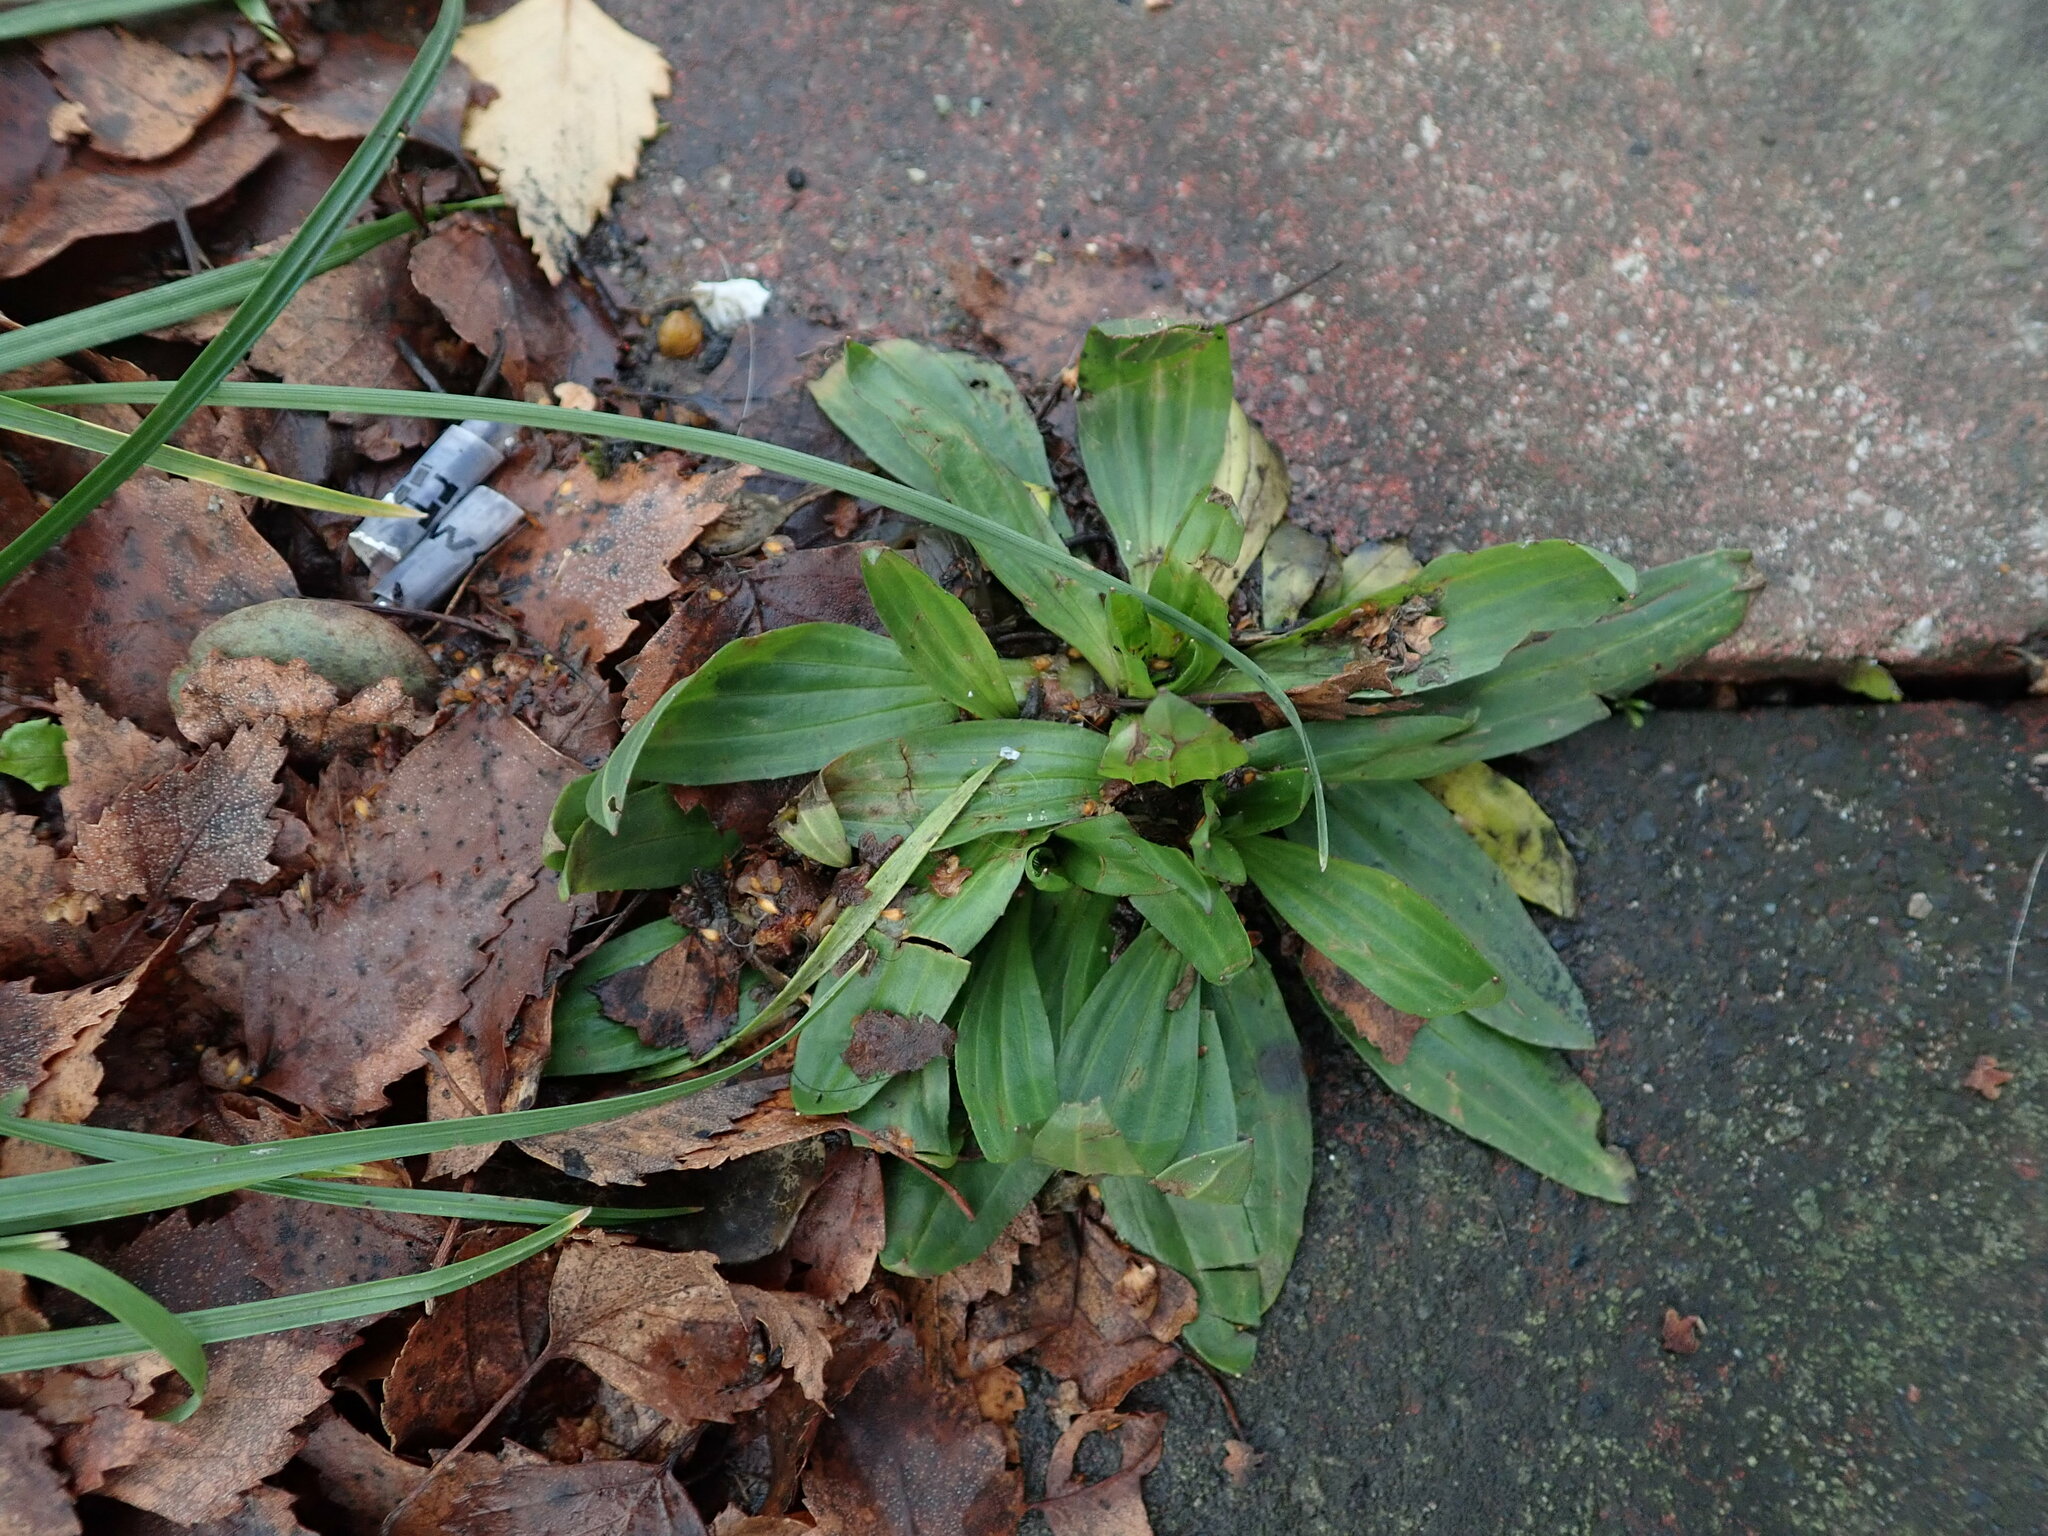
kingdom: Plantae
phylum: Tracheophyta
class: Magnoliopsida
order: Lamiales
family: Plantaginaceae
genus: Plantago
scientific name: Plantago lanceolata
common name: Ribwort plantain
